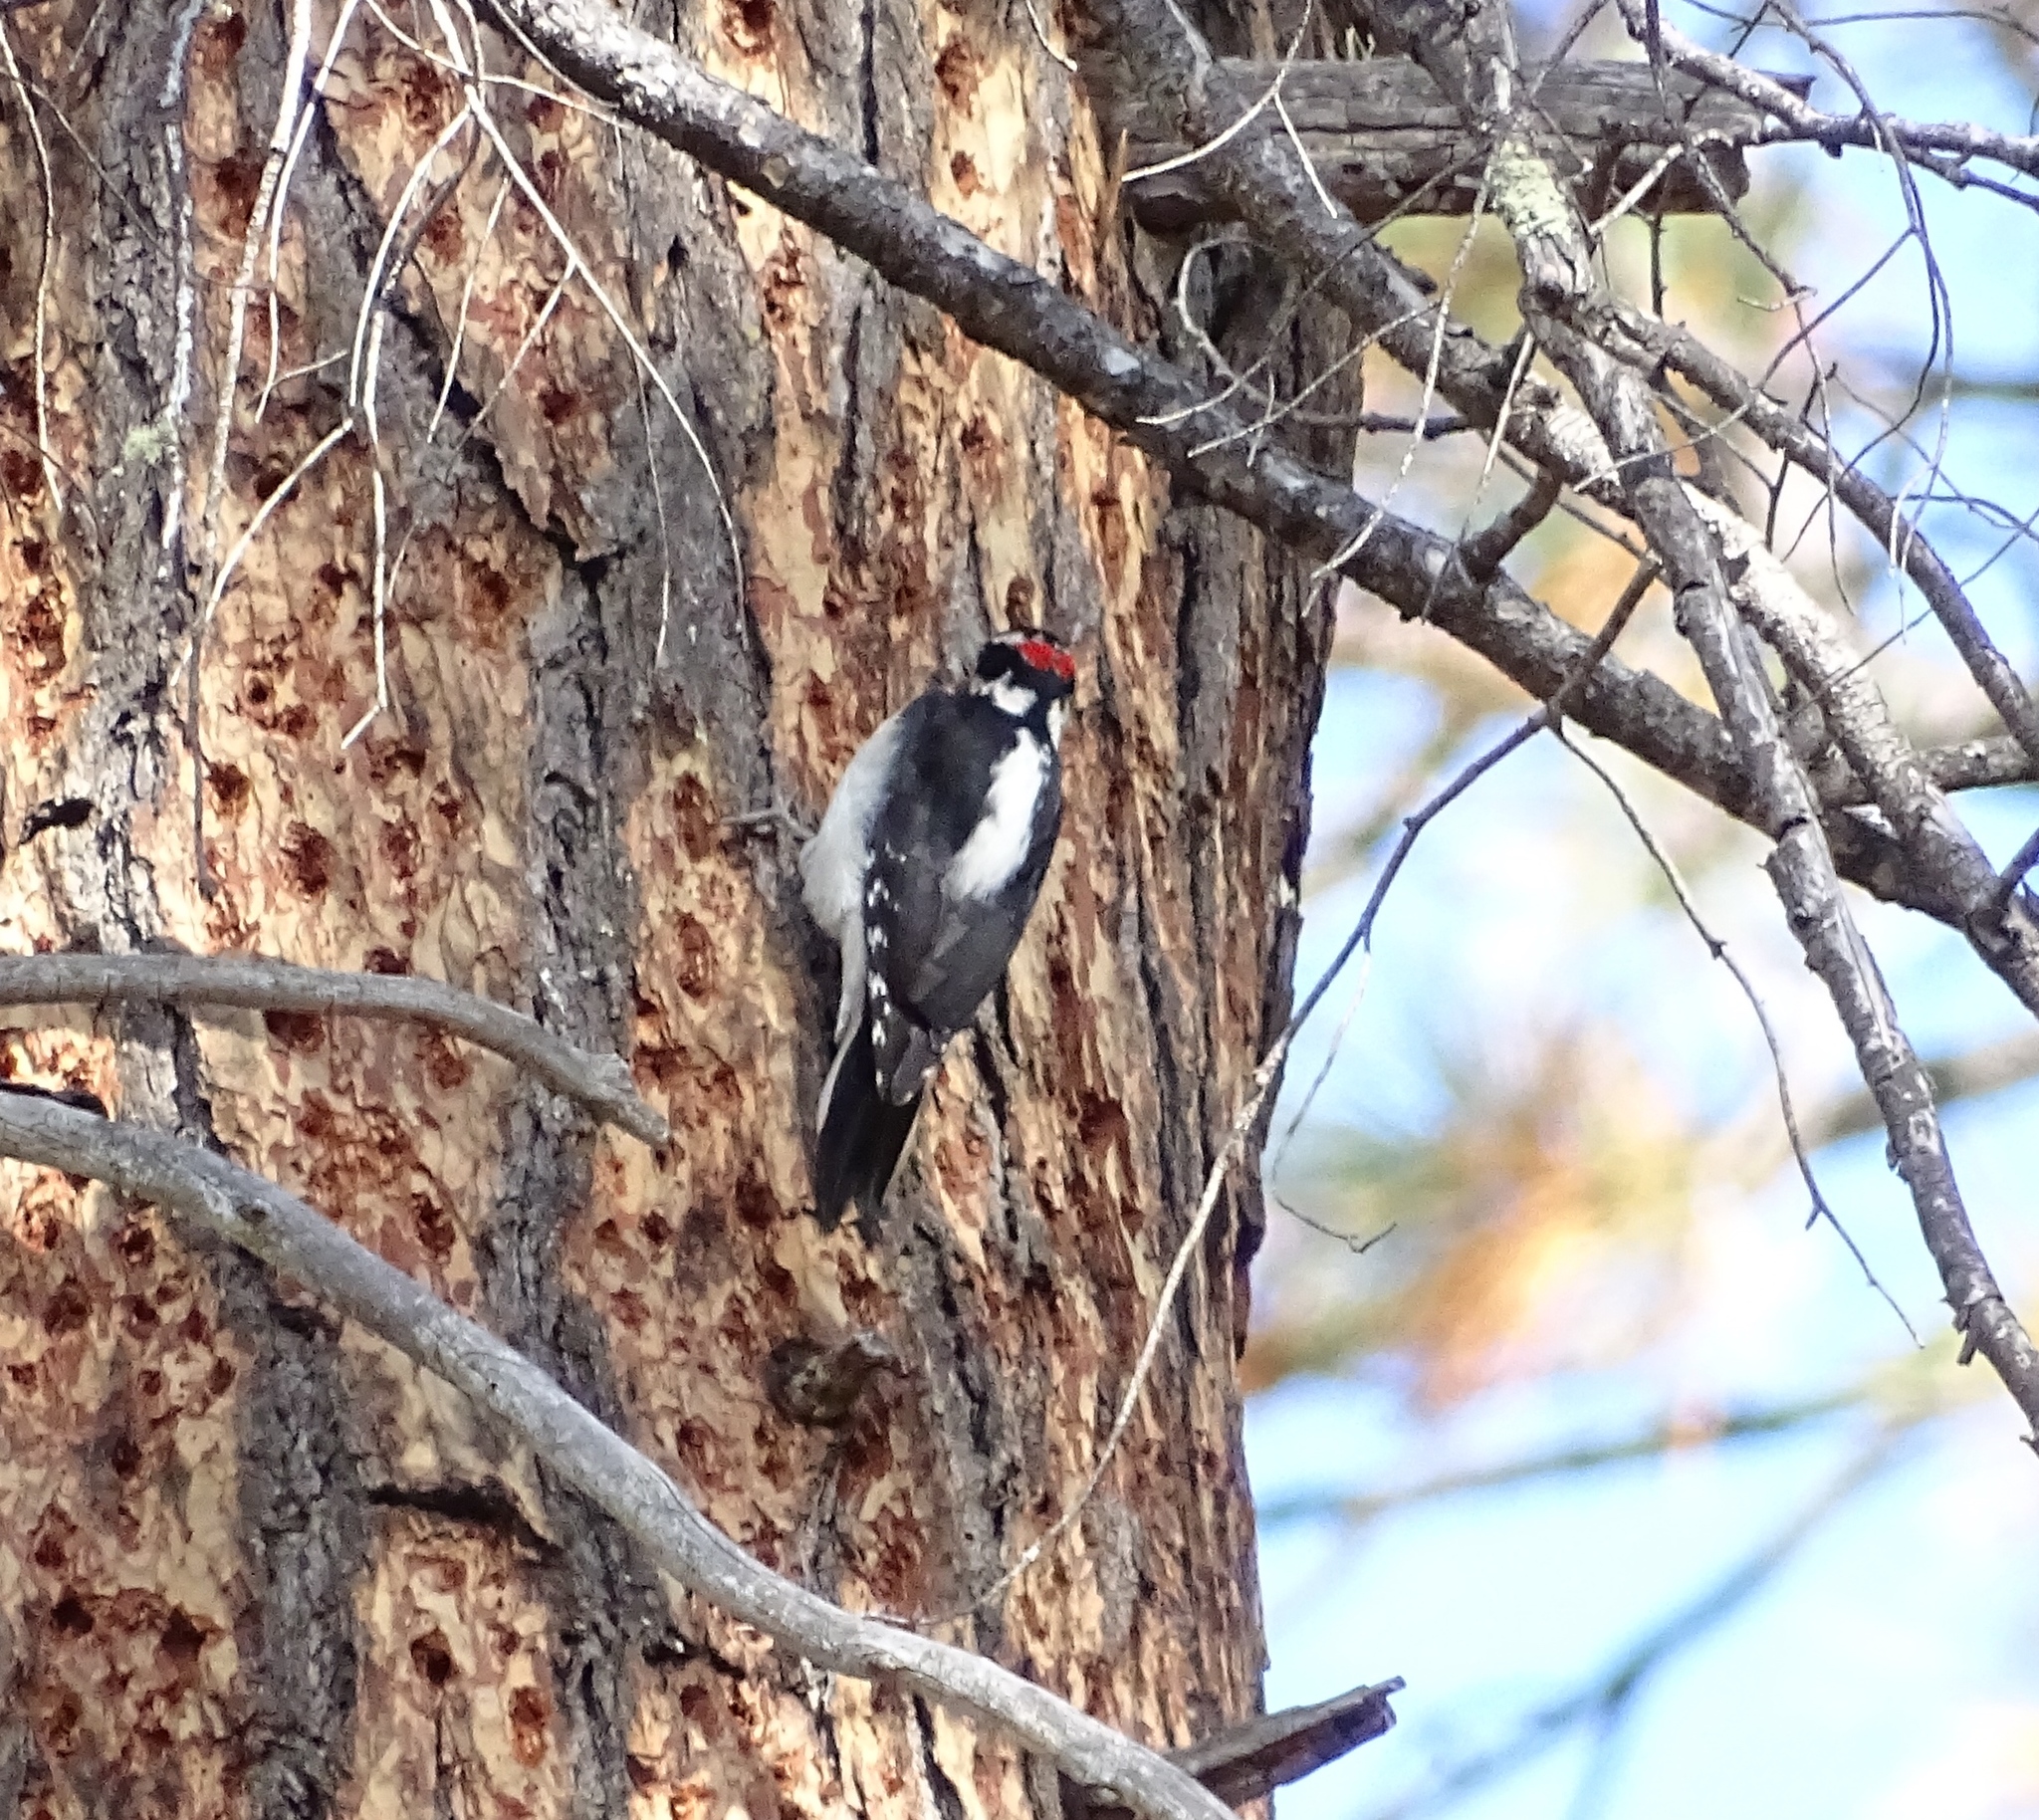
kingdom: Animalia
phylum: Chordata
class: Aves
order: Piciformes
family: Picidae
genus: Leuconotopicus
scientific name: Leuconotopicus villosus
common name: Hairy woodpecker
